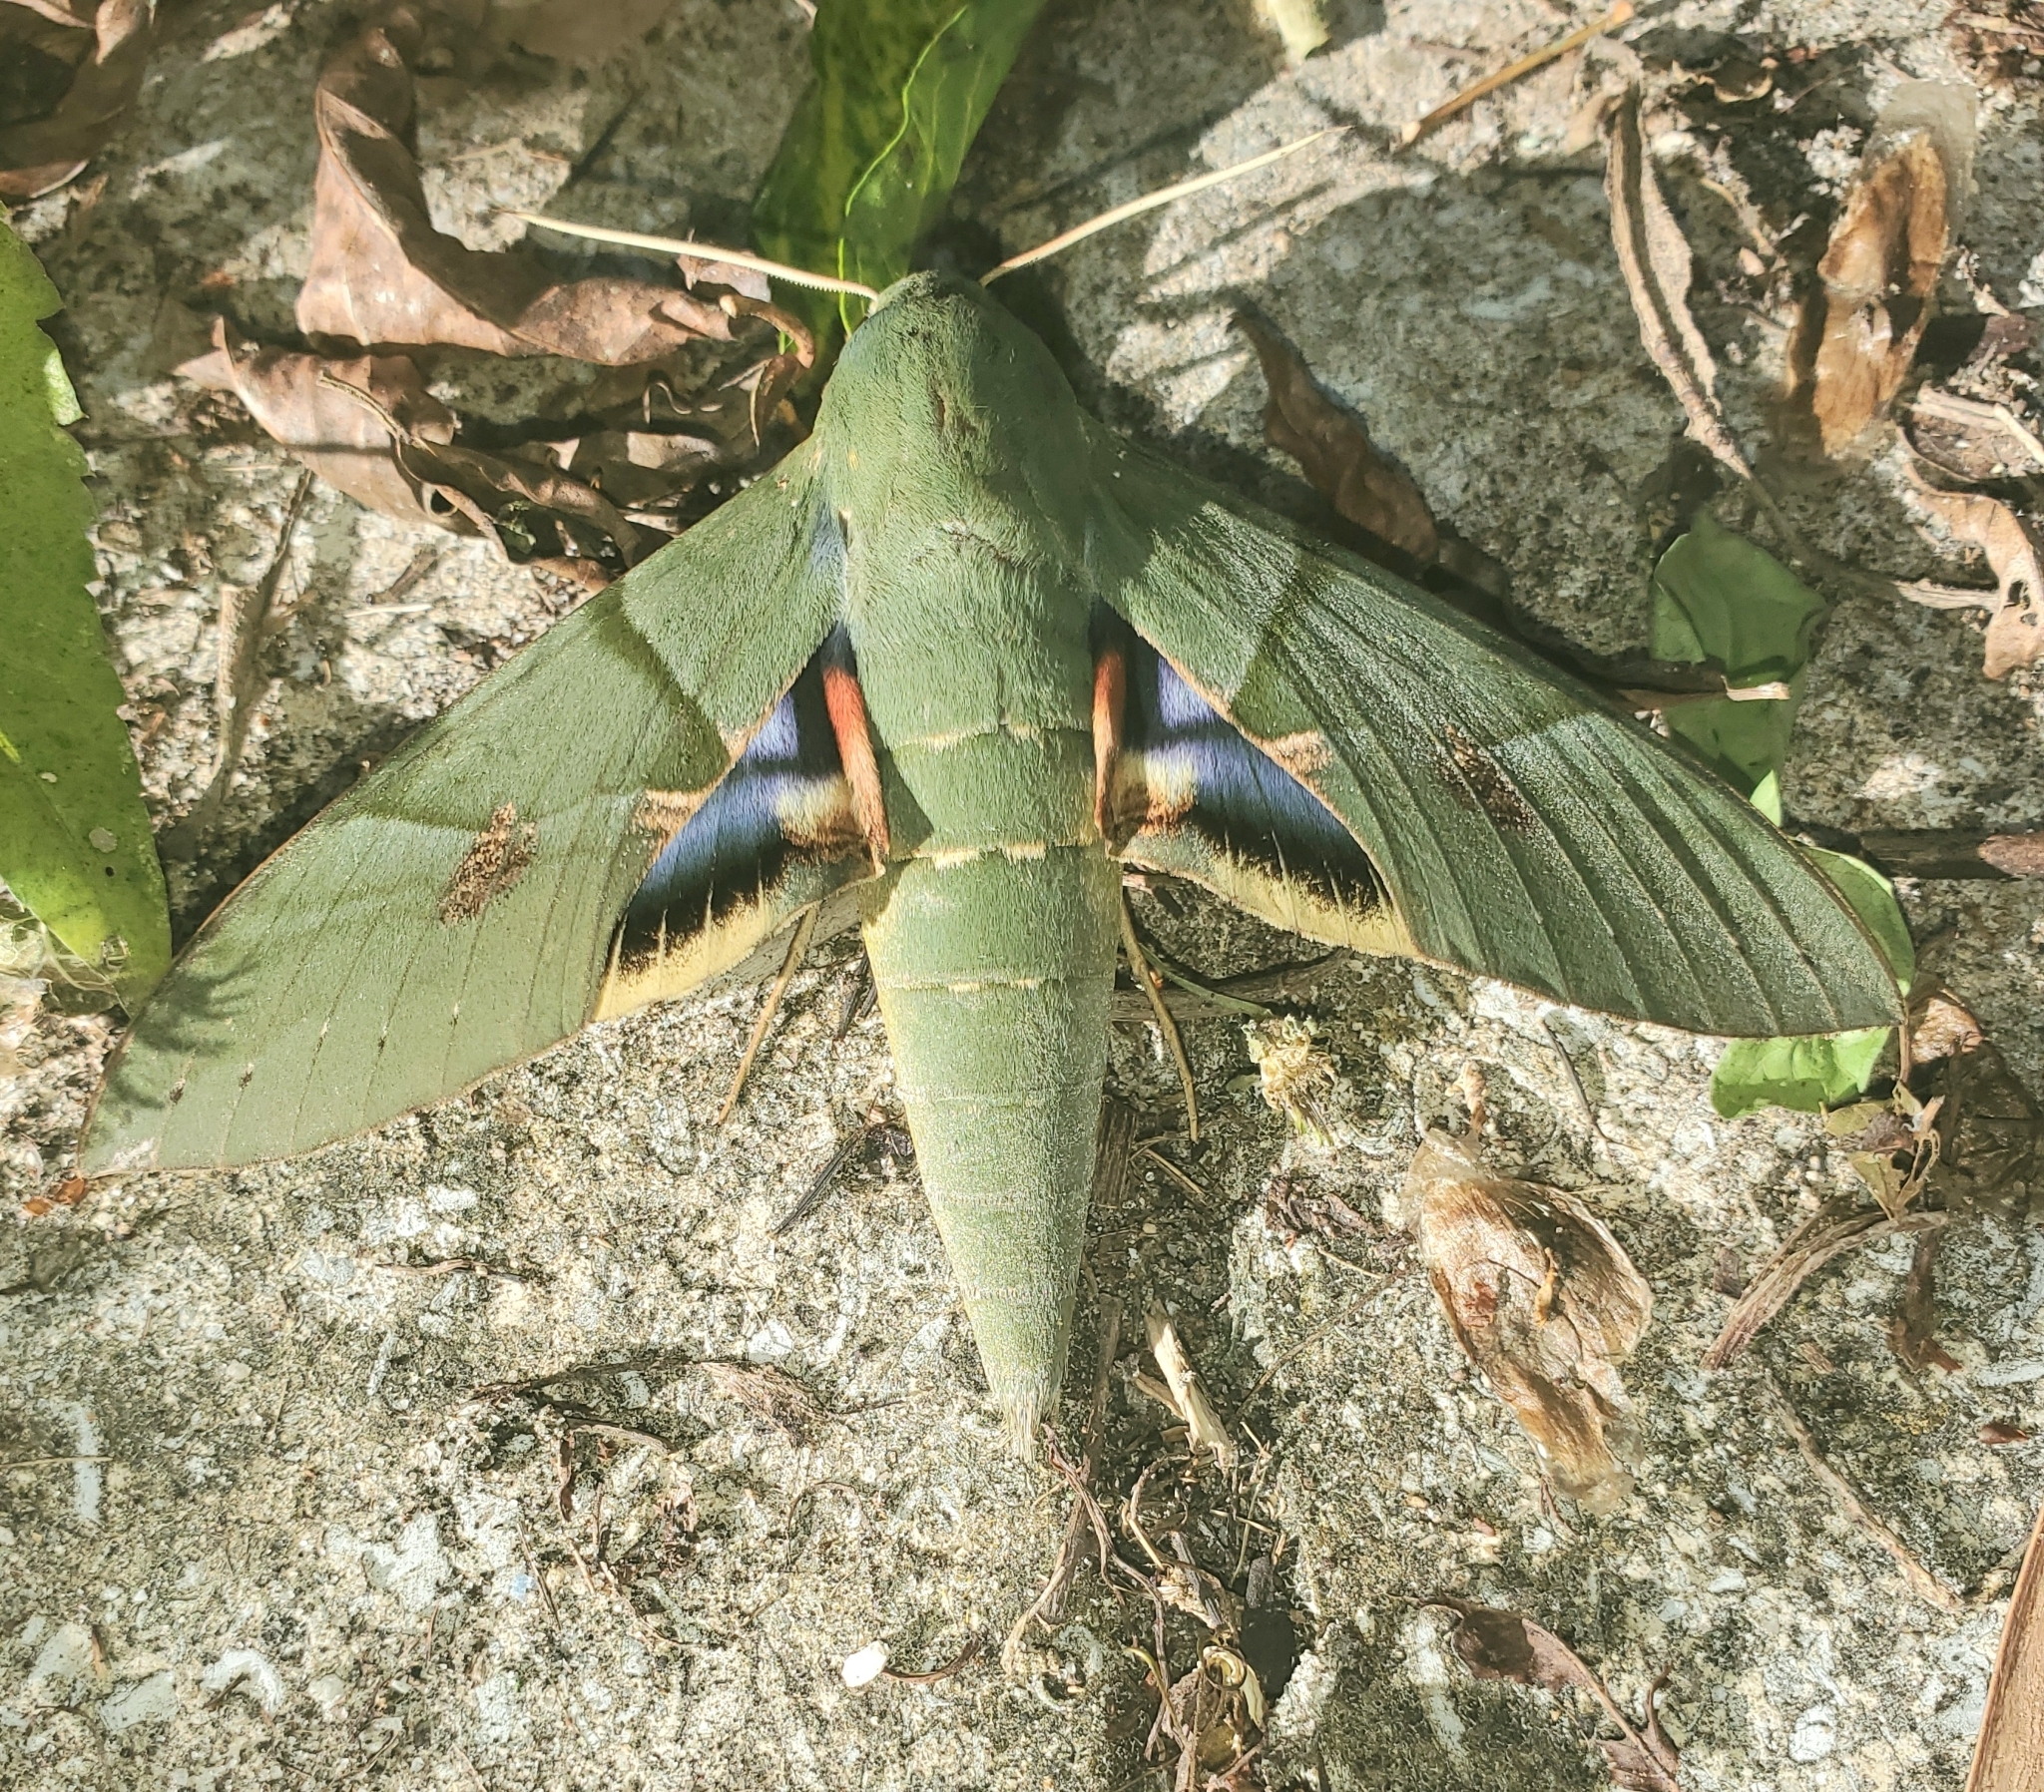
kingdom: Animalia
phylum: Arthropoda
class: Insecta
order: Lepidoptera
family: Sphingidae
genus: Eumorpha
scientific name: Eumorpha labruscae
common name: Gaudy sphinx
